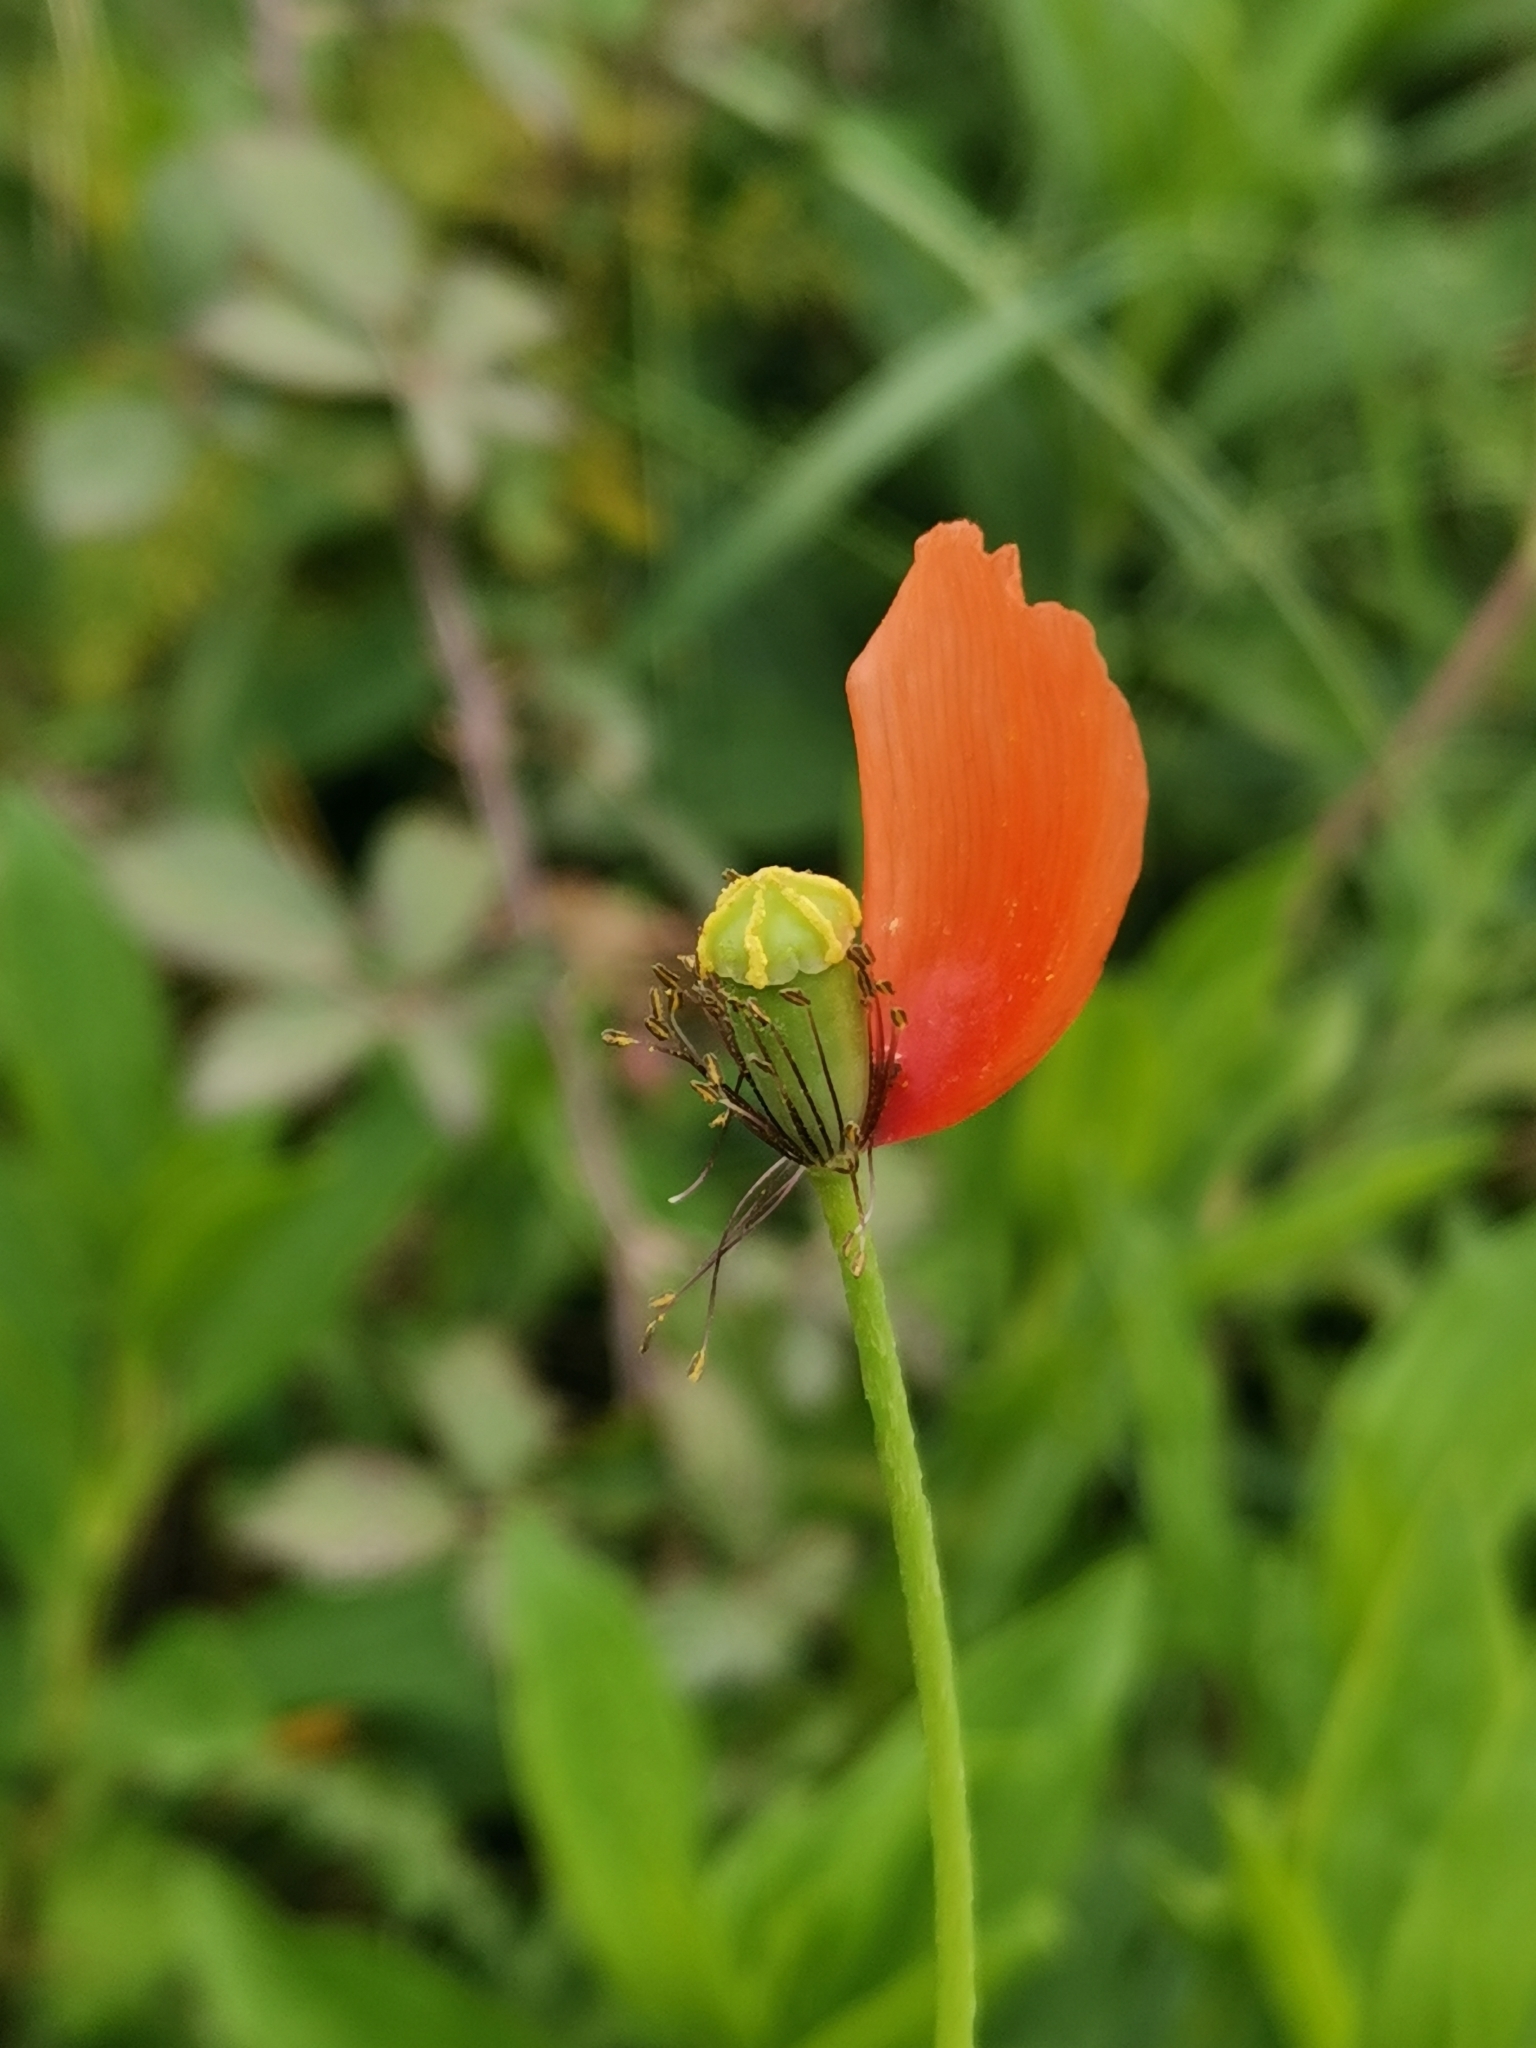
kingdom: Plantae
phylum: Tracheophyta
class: Magnoliopsida
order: Ranunculales
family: Papaveraceae
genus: Papaver
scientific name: Papaver dubium
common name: Long-headed poppy
